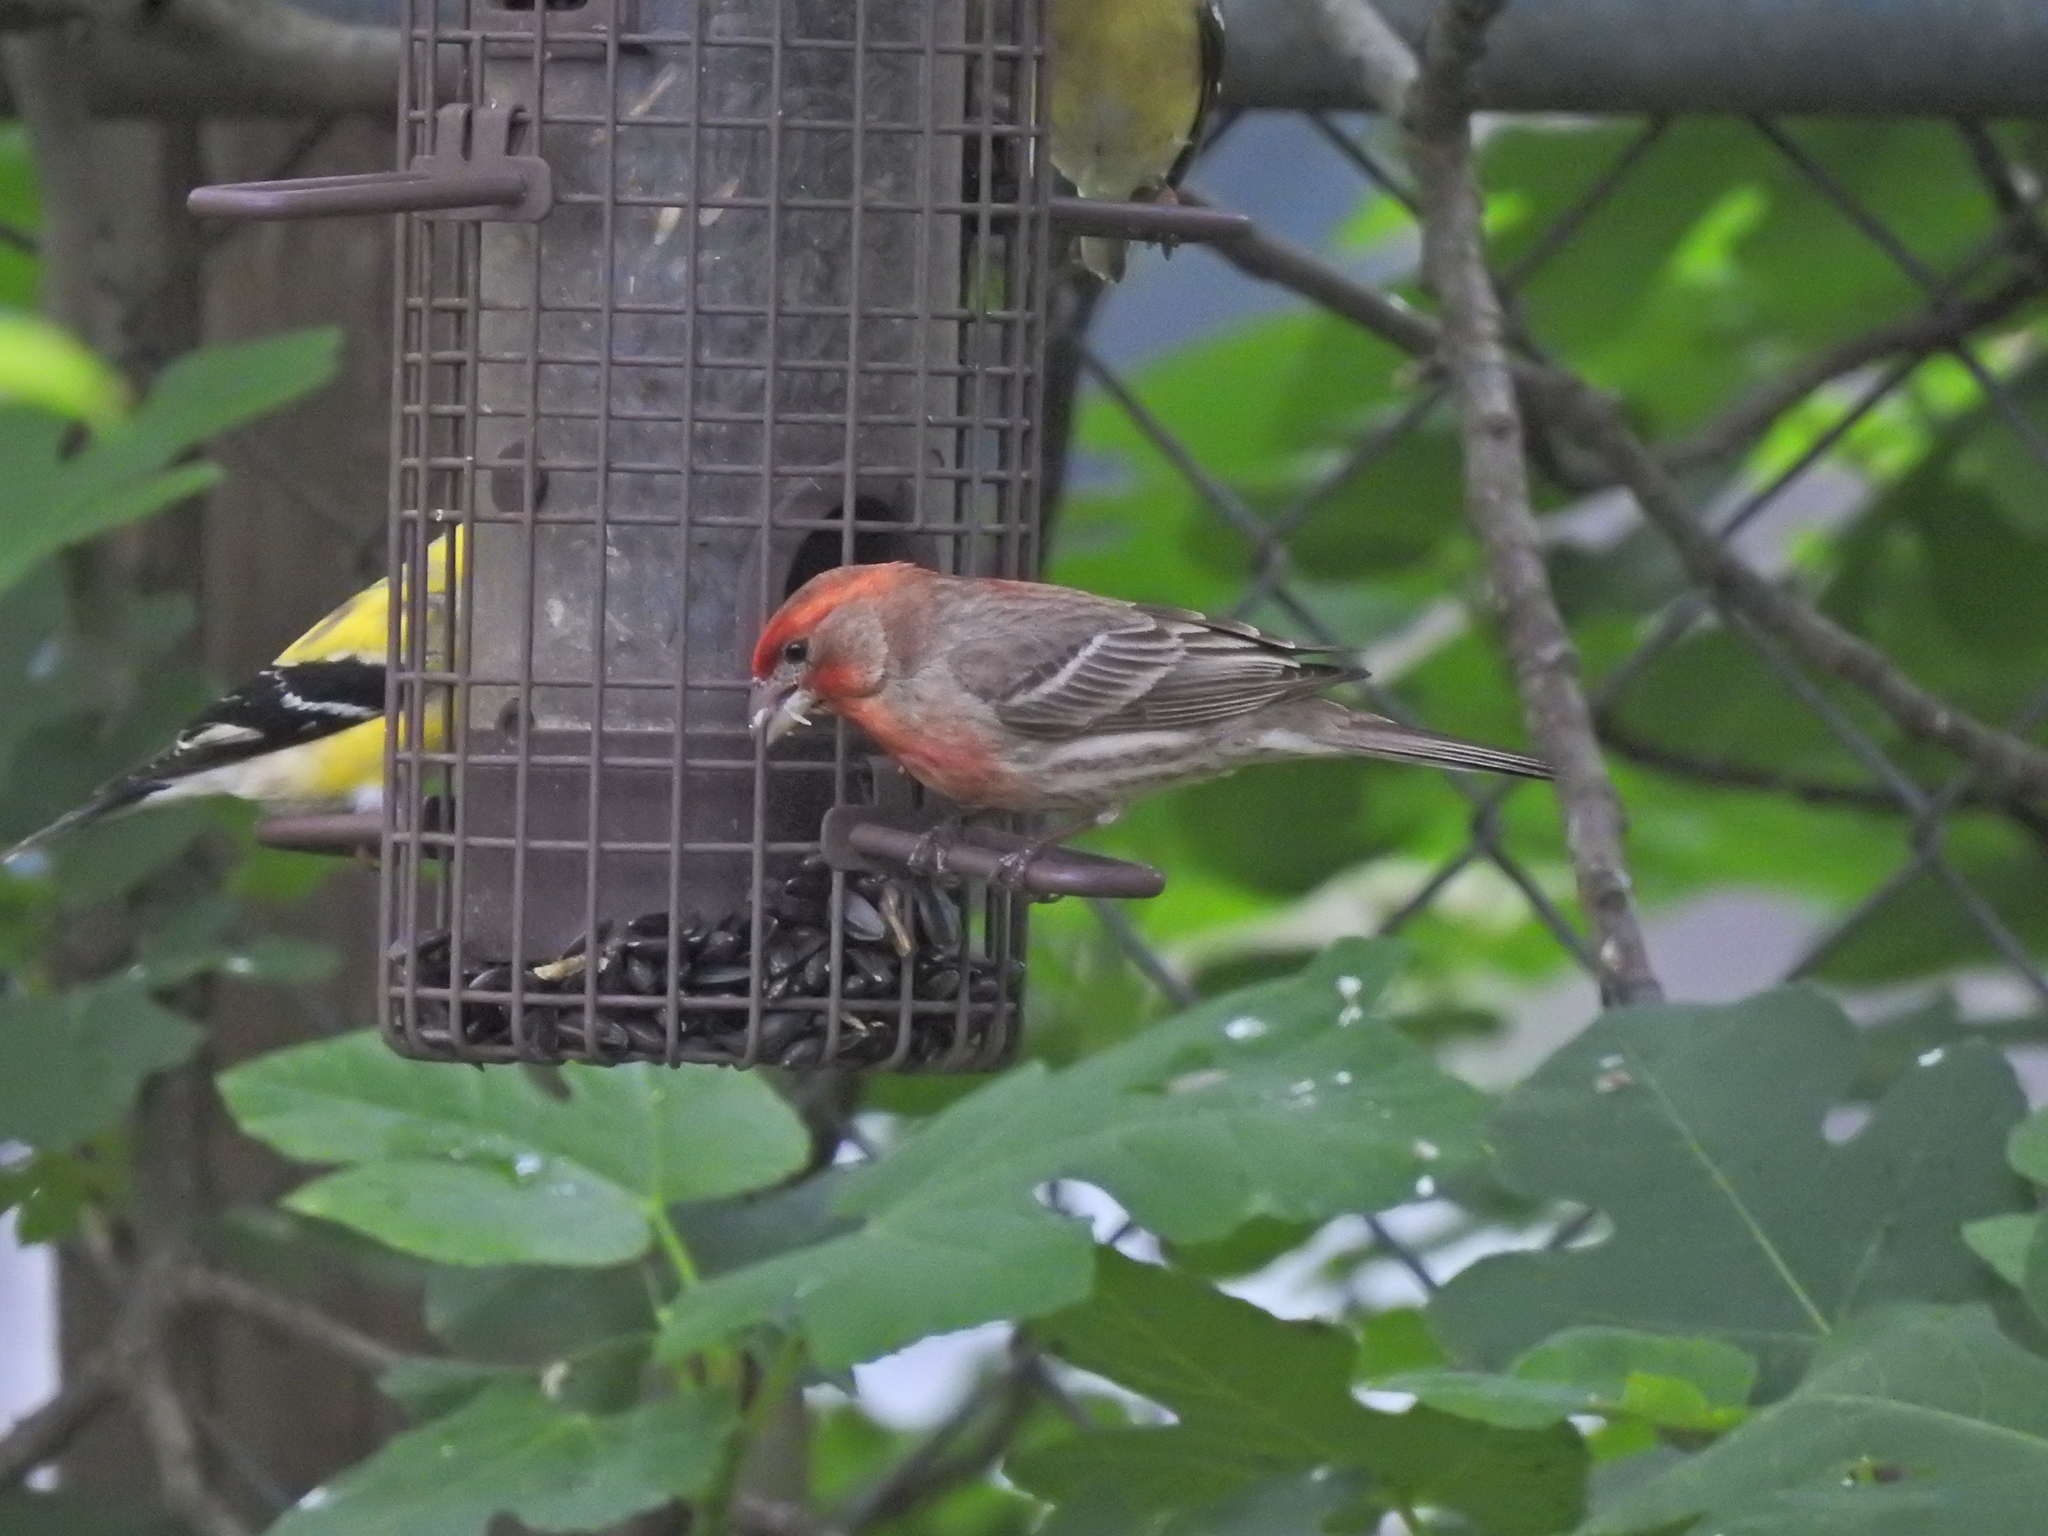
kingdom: Animalia
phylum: Chordata
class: Aves
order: Passeriformes
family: Fringillidae
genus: Haemorhous
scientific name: Haemorhous mexicanus
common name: House finch
